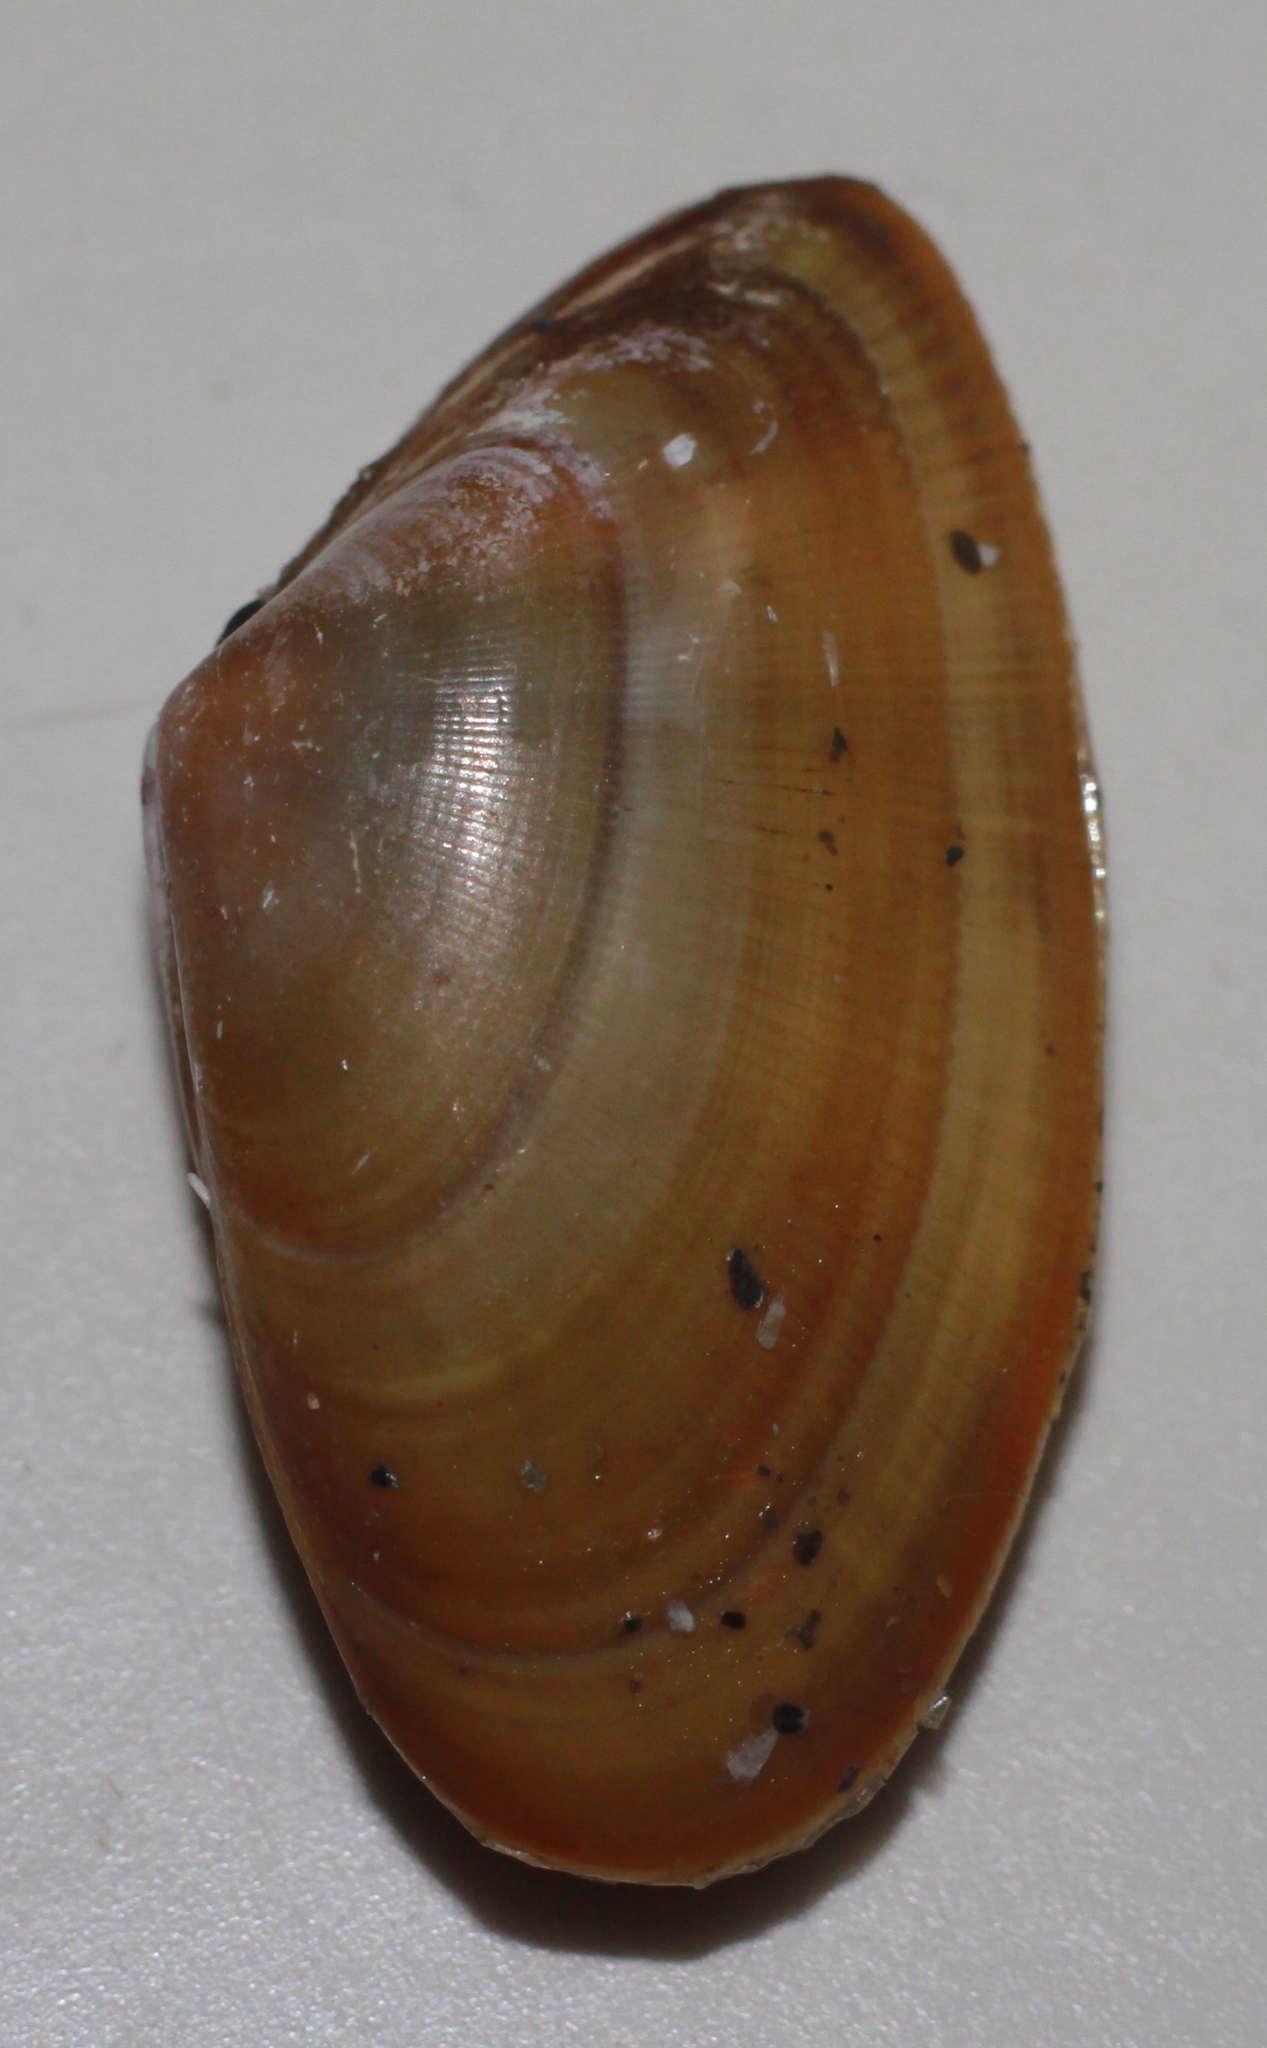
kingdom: Animalia
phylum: Mollusca
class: Bivalvia
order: Cardiida
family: Donacidae
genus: Donax
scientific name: Donax vittatus
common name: Banded wedge-shell
